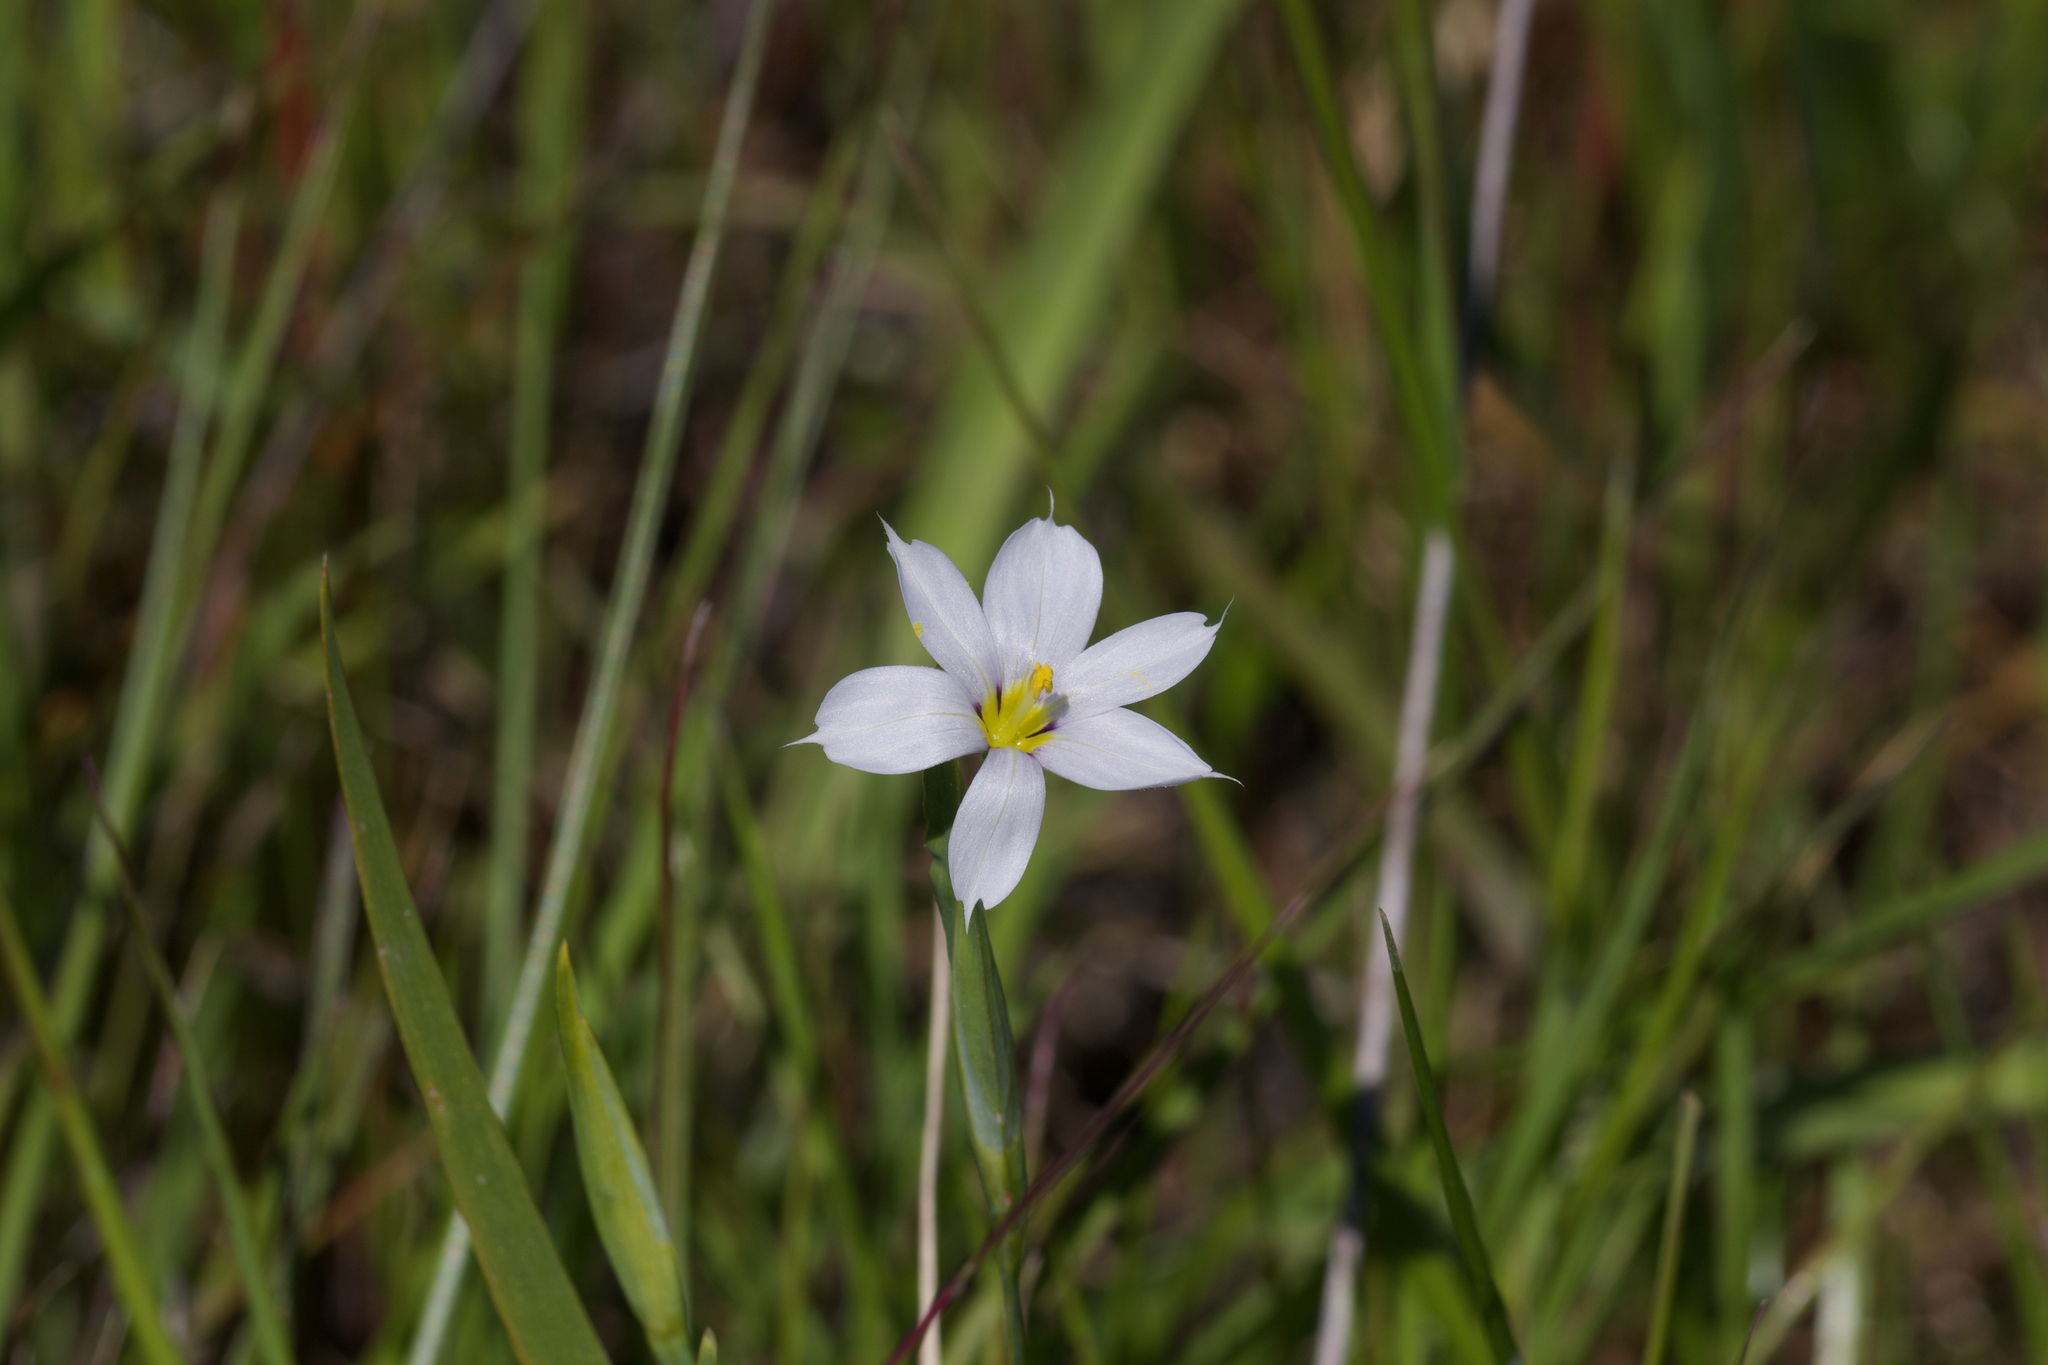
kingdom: Plantae
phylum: Tracheophyta
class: Liliopsida
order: Asparagales
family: Iridaceae
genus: Sisyrinchium
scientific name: Sisyrinchium bellum
